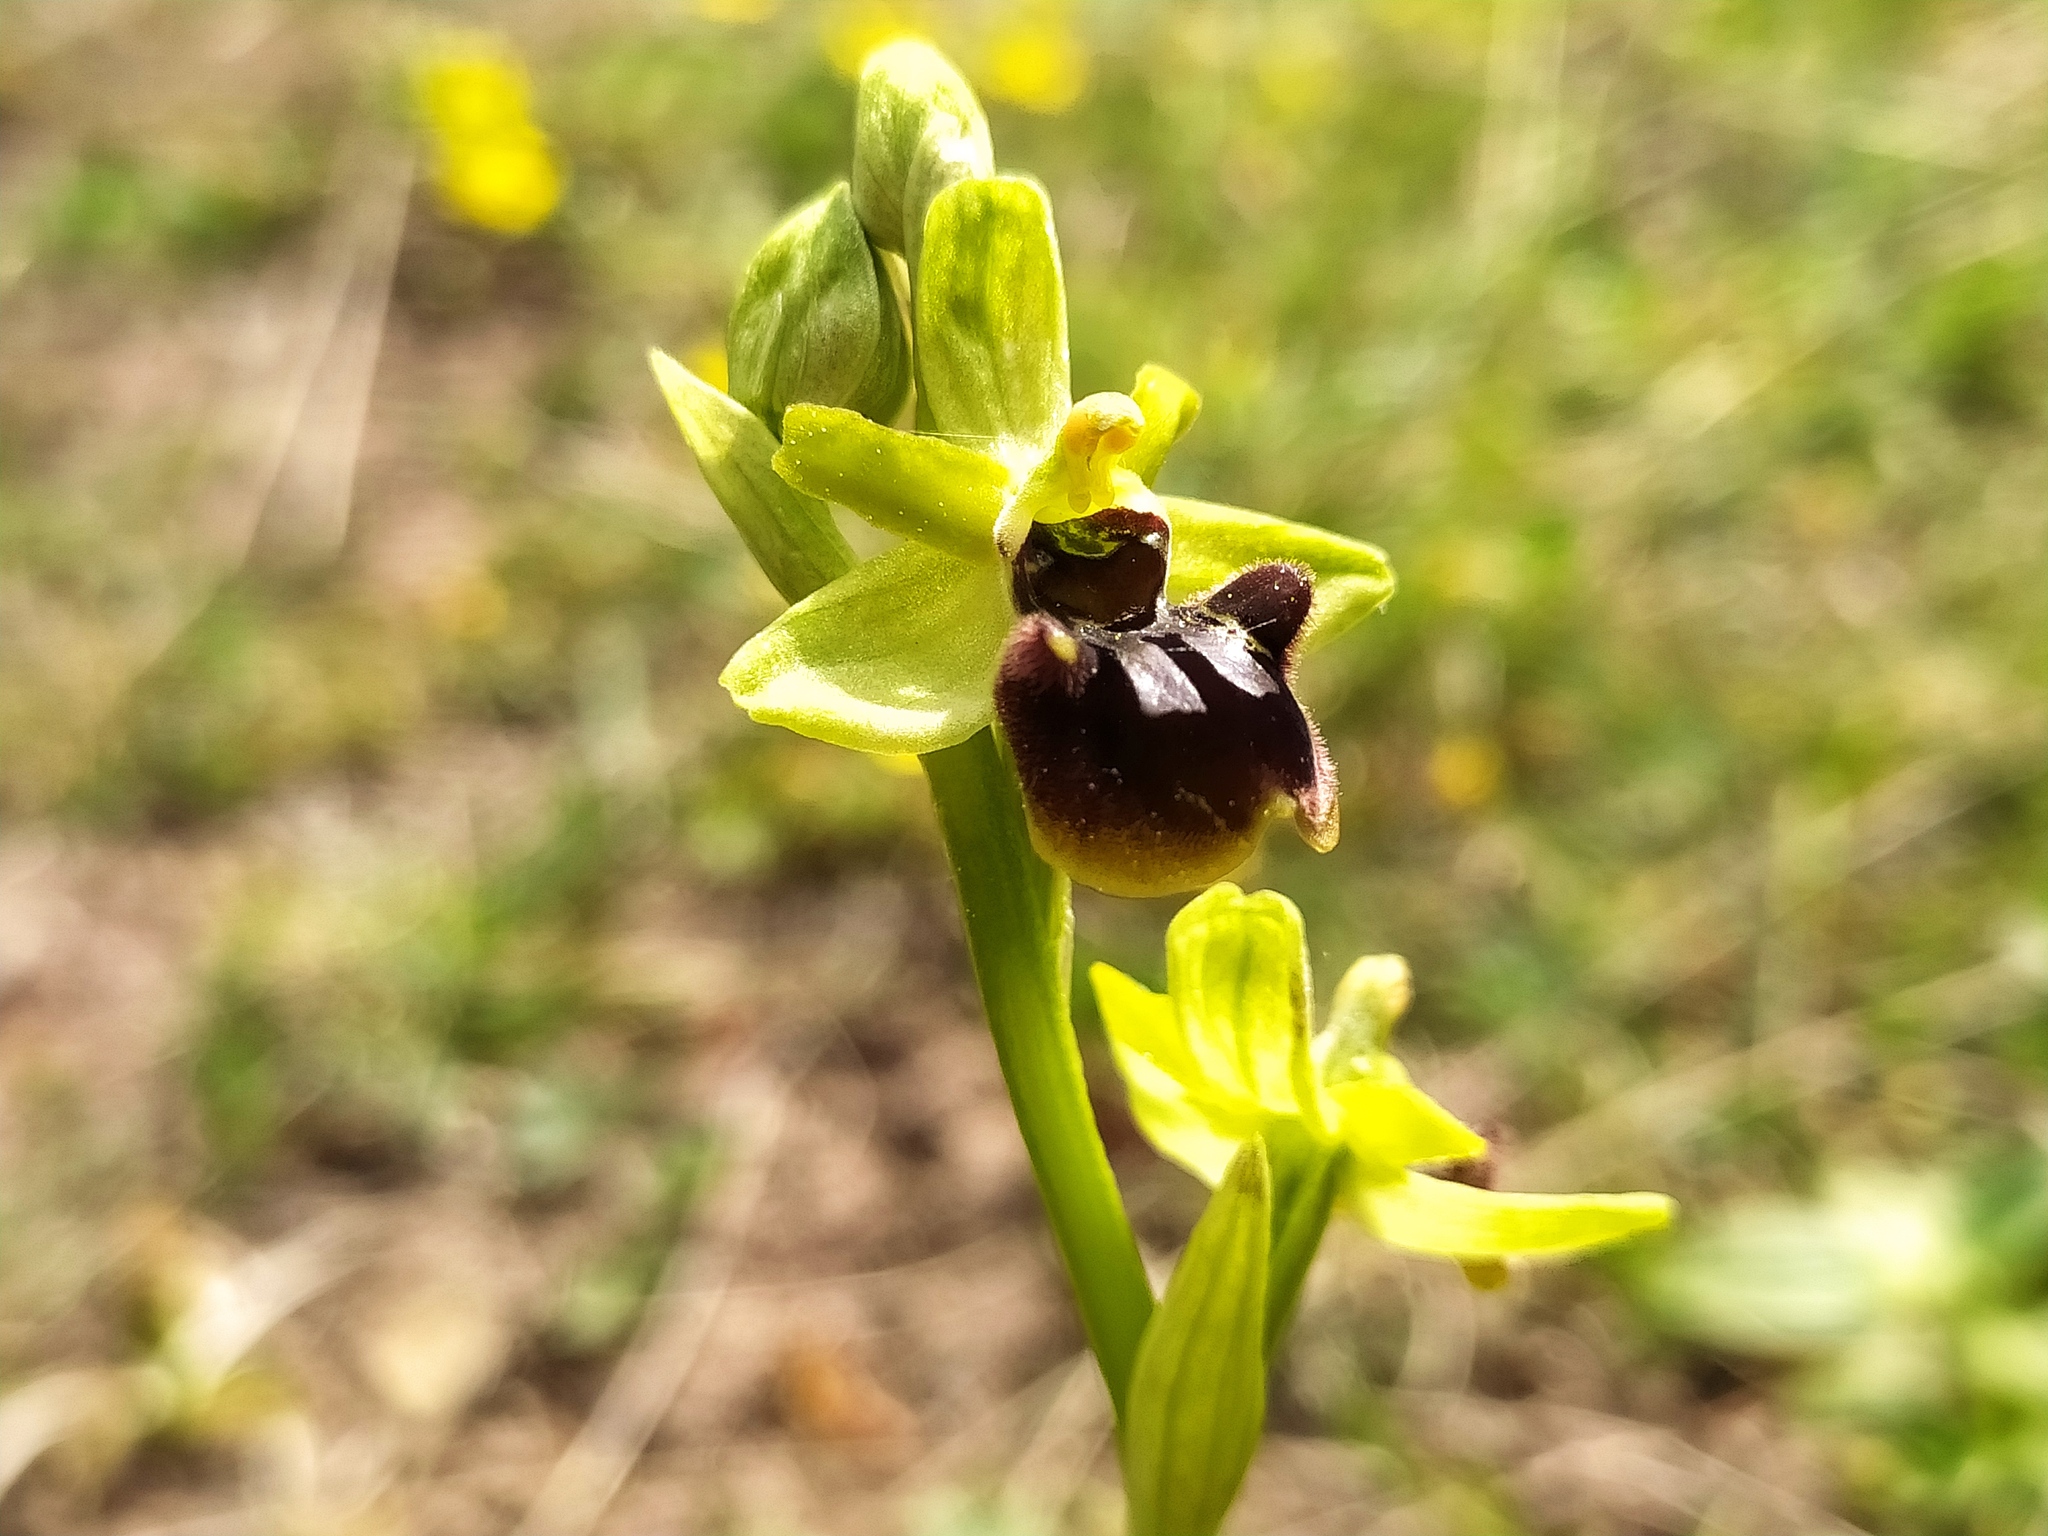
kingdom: Plantae
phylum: Tracheophyta
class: Liliopsida
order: Asparagales
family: Orchidaceae
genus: Ophrys
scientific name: Ophrys sphegodes
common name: Early spider-orchid
